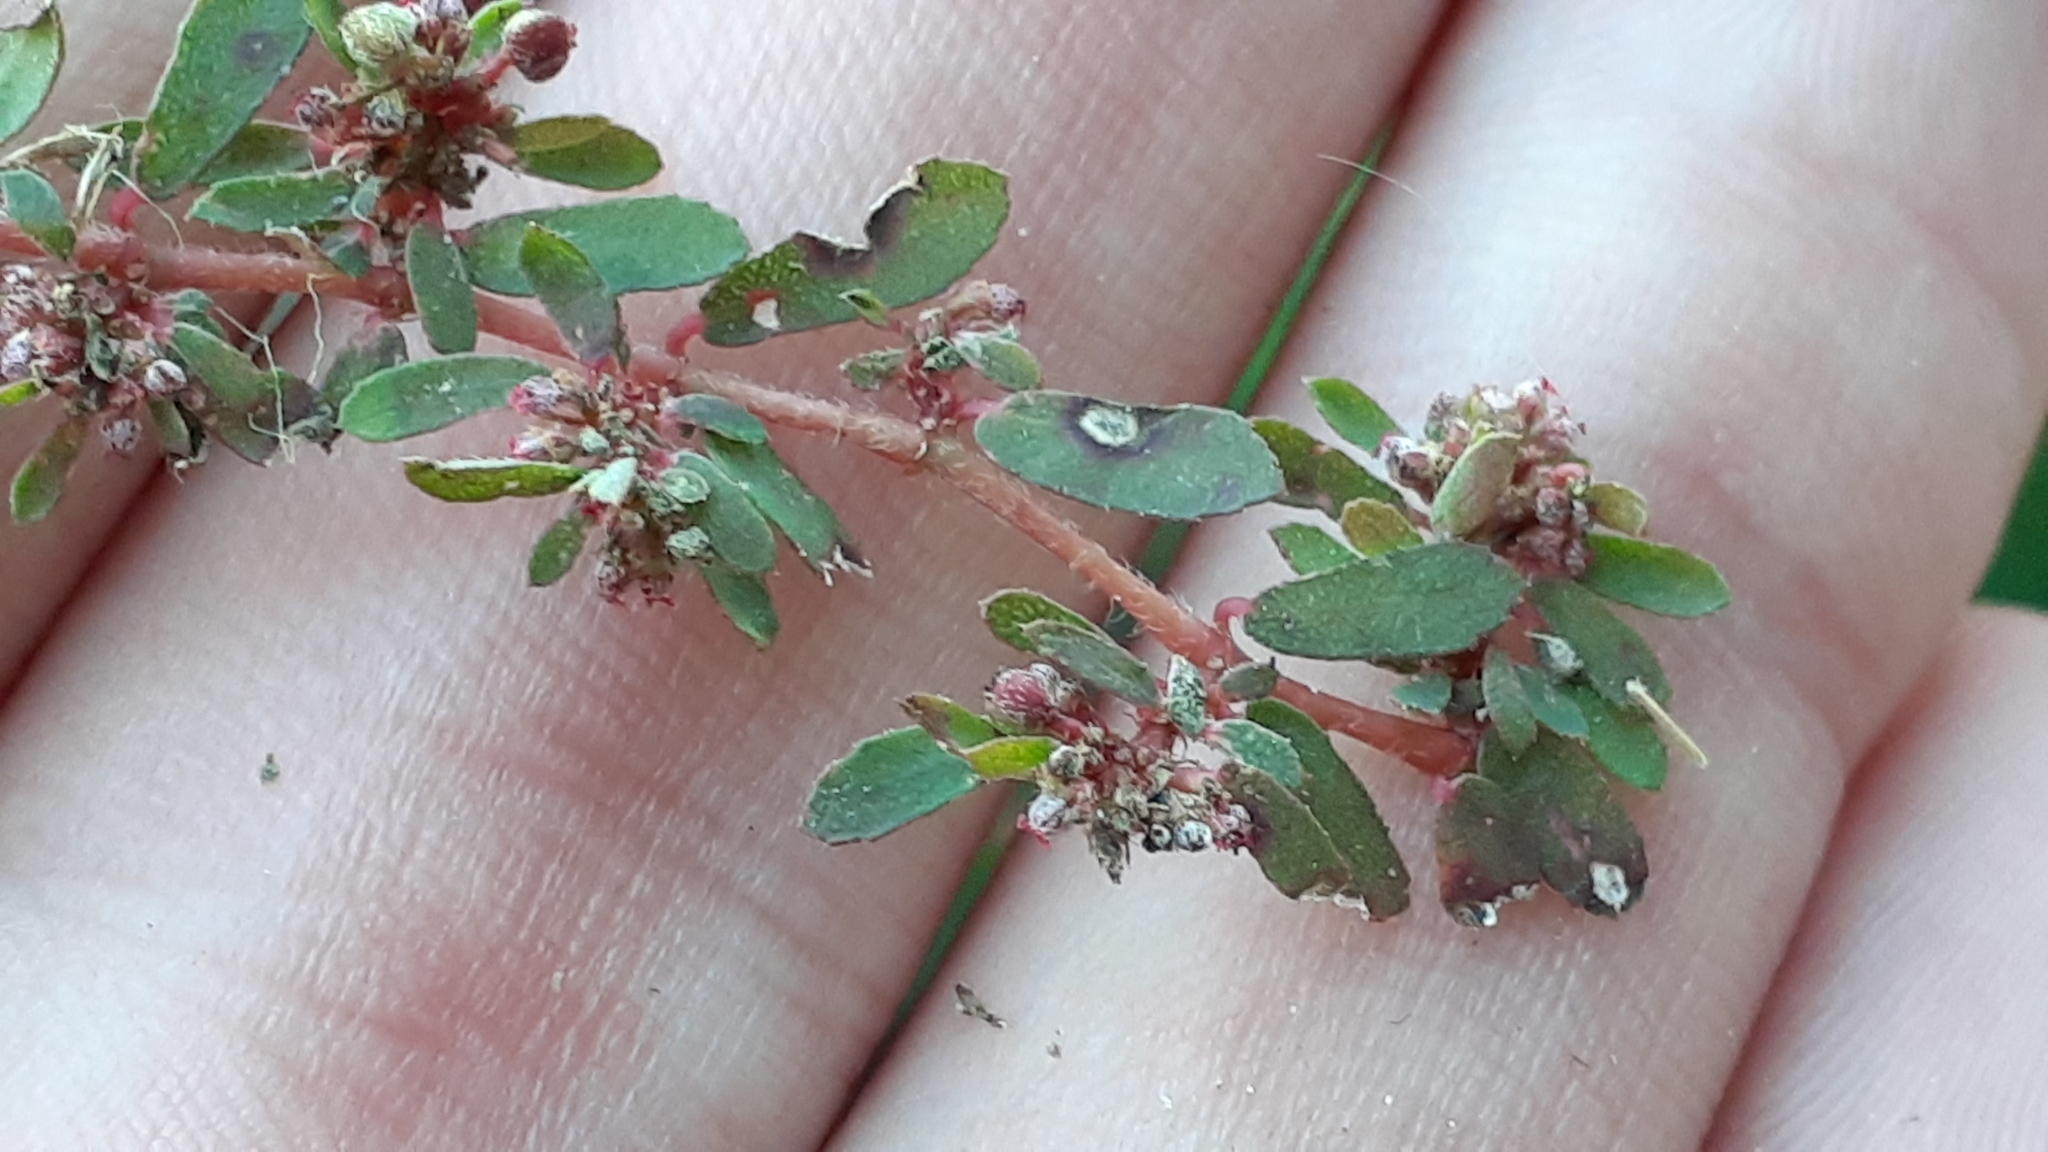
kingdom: Plantae
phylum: Tracheophyta
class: Magnoliopsida
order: Malpighiales
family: Euphorbiaceae
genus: Euphorbia
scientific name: Euphorbia maculata
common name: Spotted spurge
